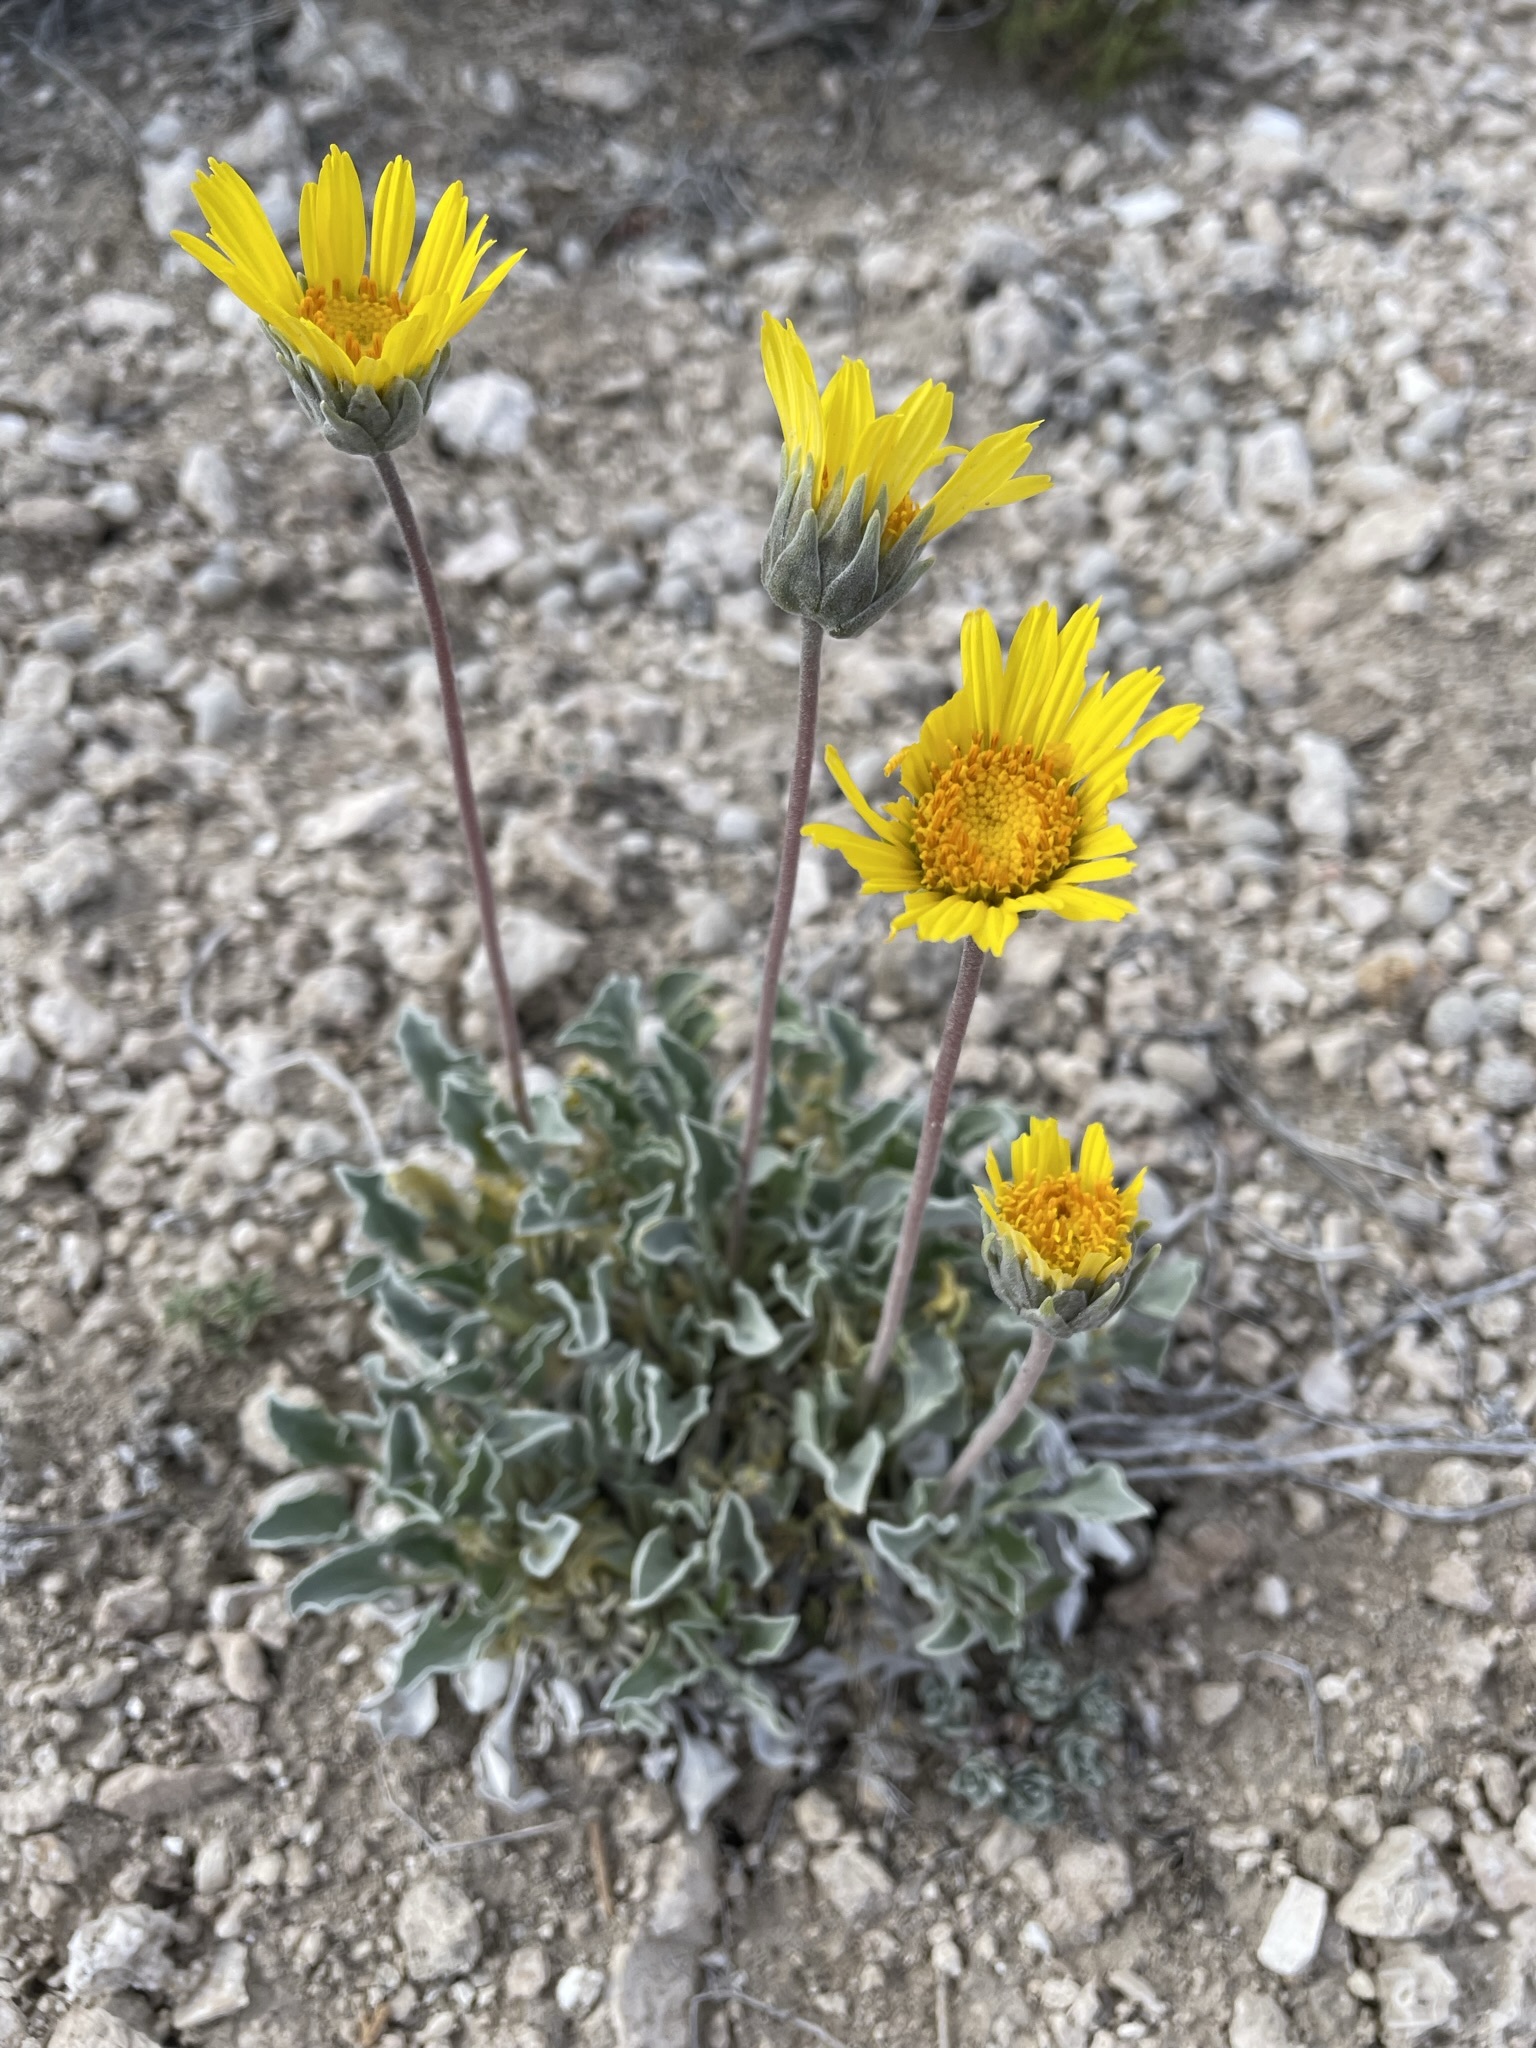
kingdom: Plantae
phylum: Tracheophyta
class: Magnoliopsida
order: Asterales
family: Asteraceae
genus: Enceliopsis
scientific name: Enceliopsis nudicaulis
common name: Naked-stem daisy
